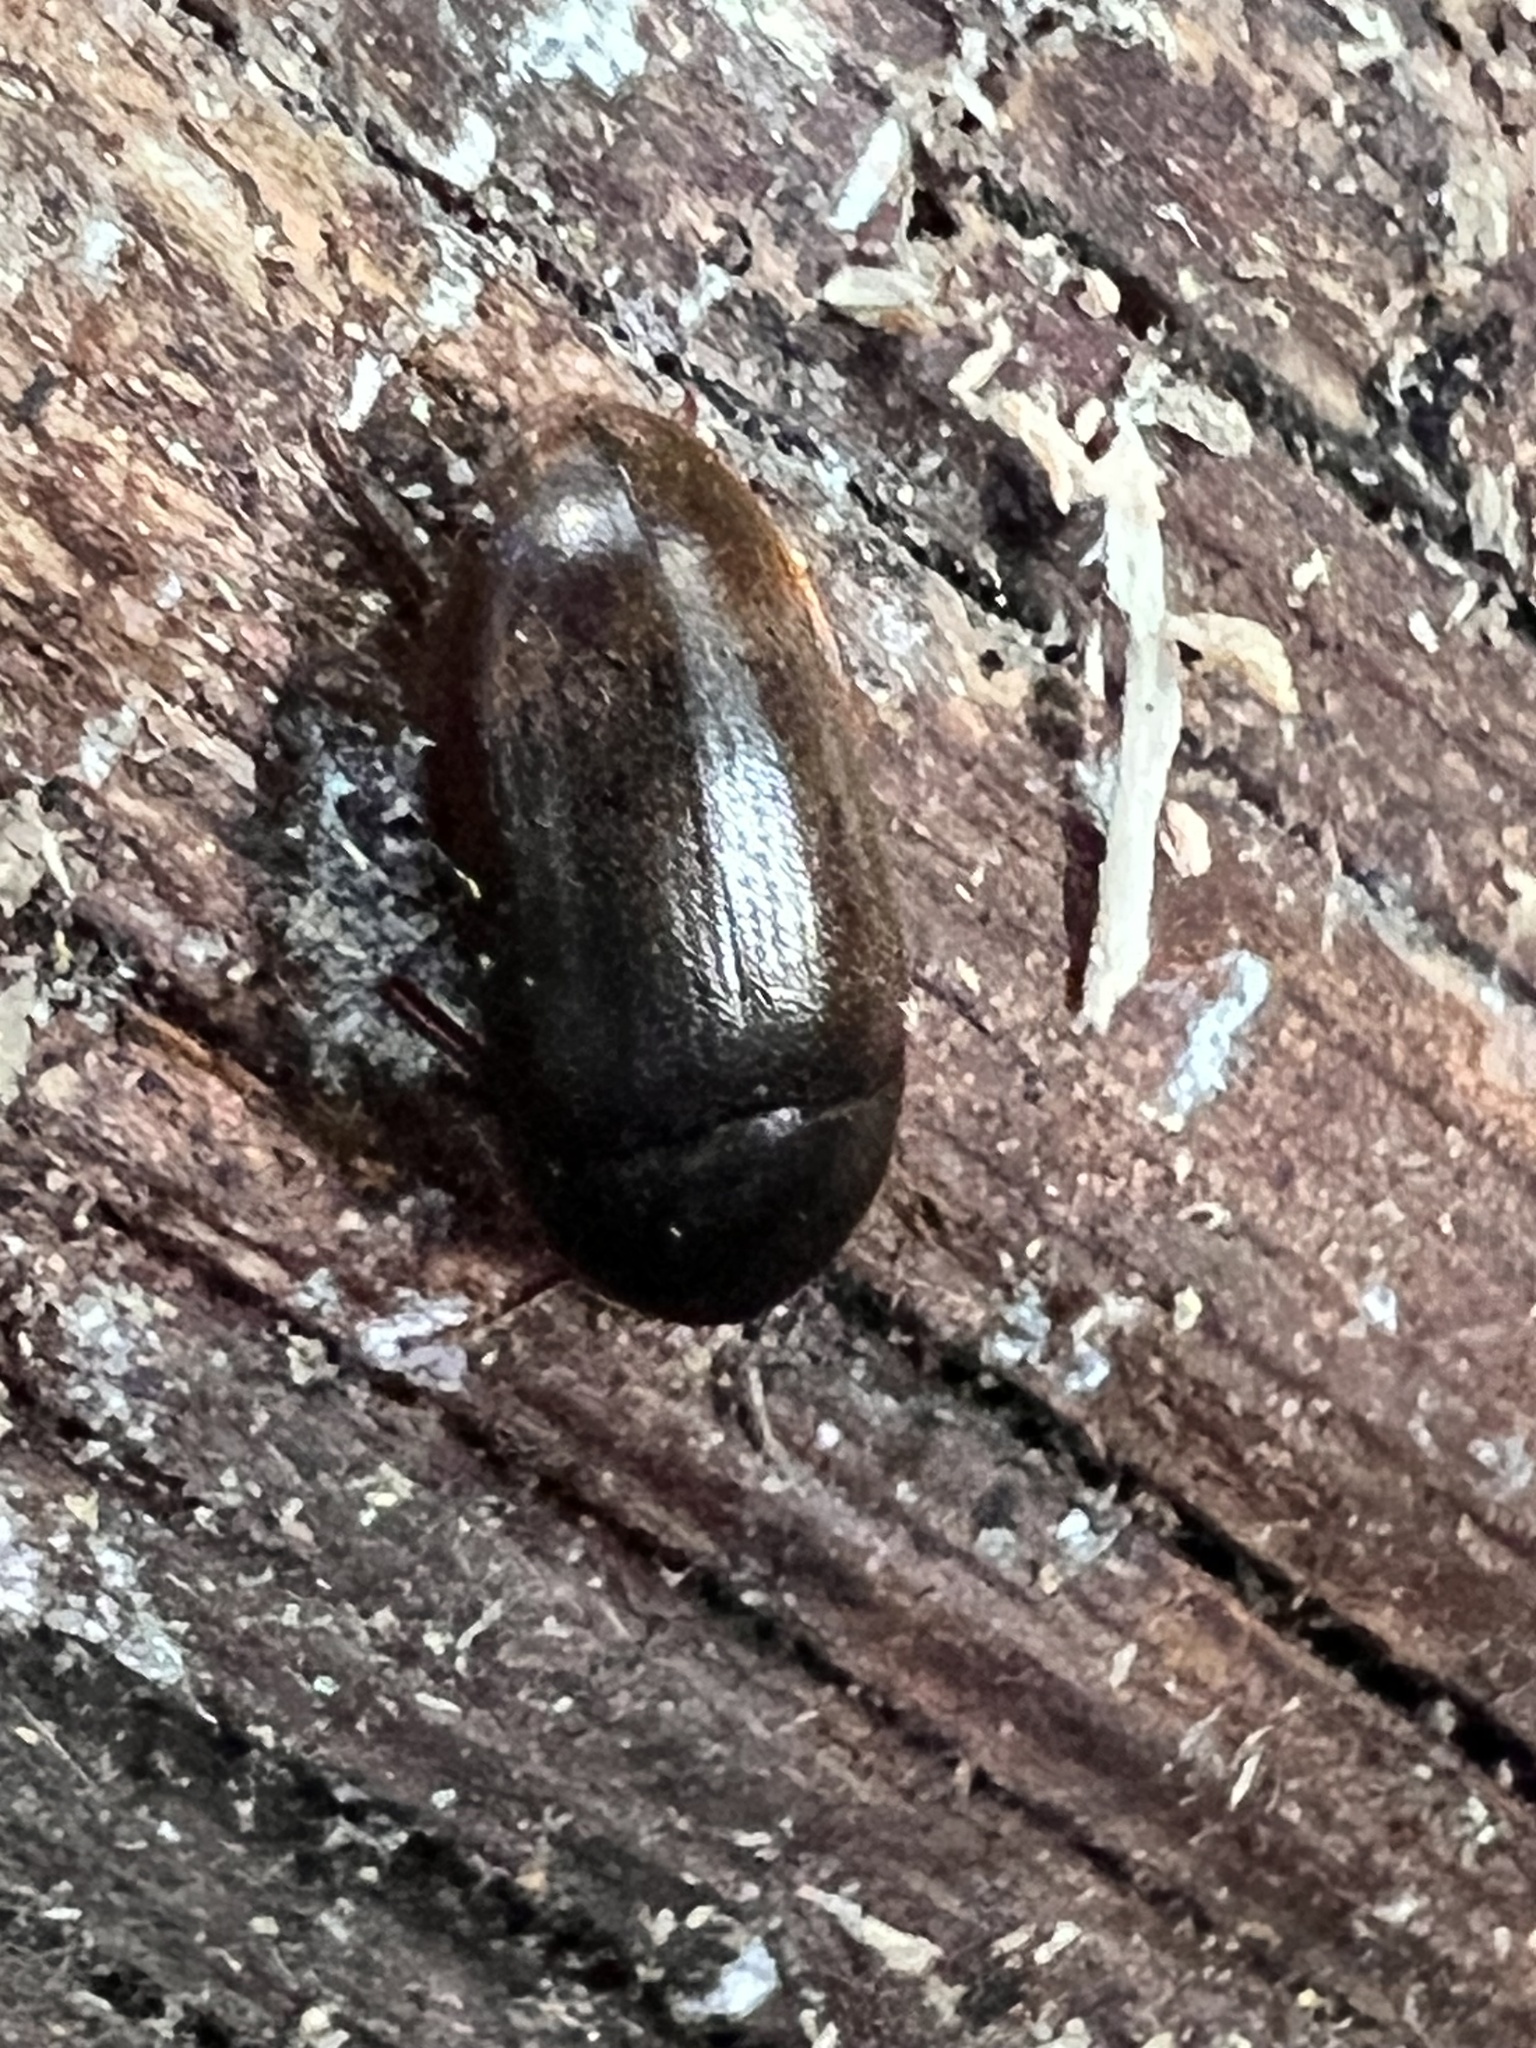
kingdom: Animalia
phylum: Arthropoda
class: Insecta
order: Coleoptera
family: Tetratomidae
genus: Eustrophus
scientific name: Eustrophus tomentosus
